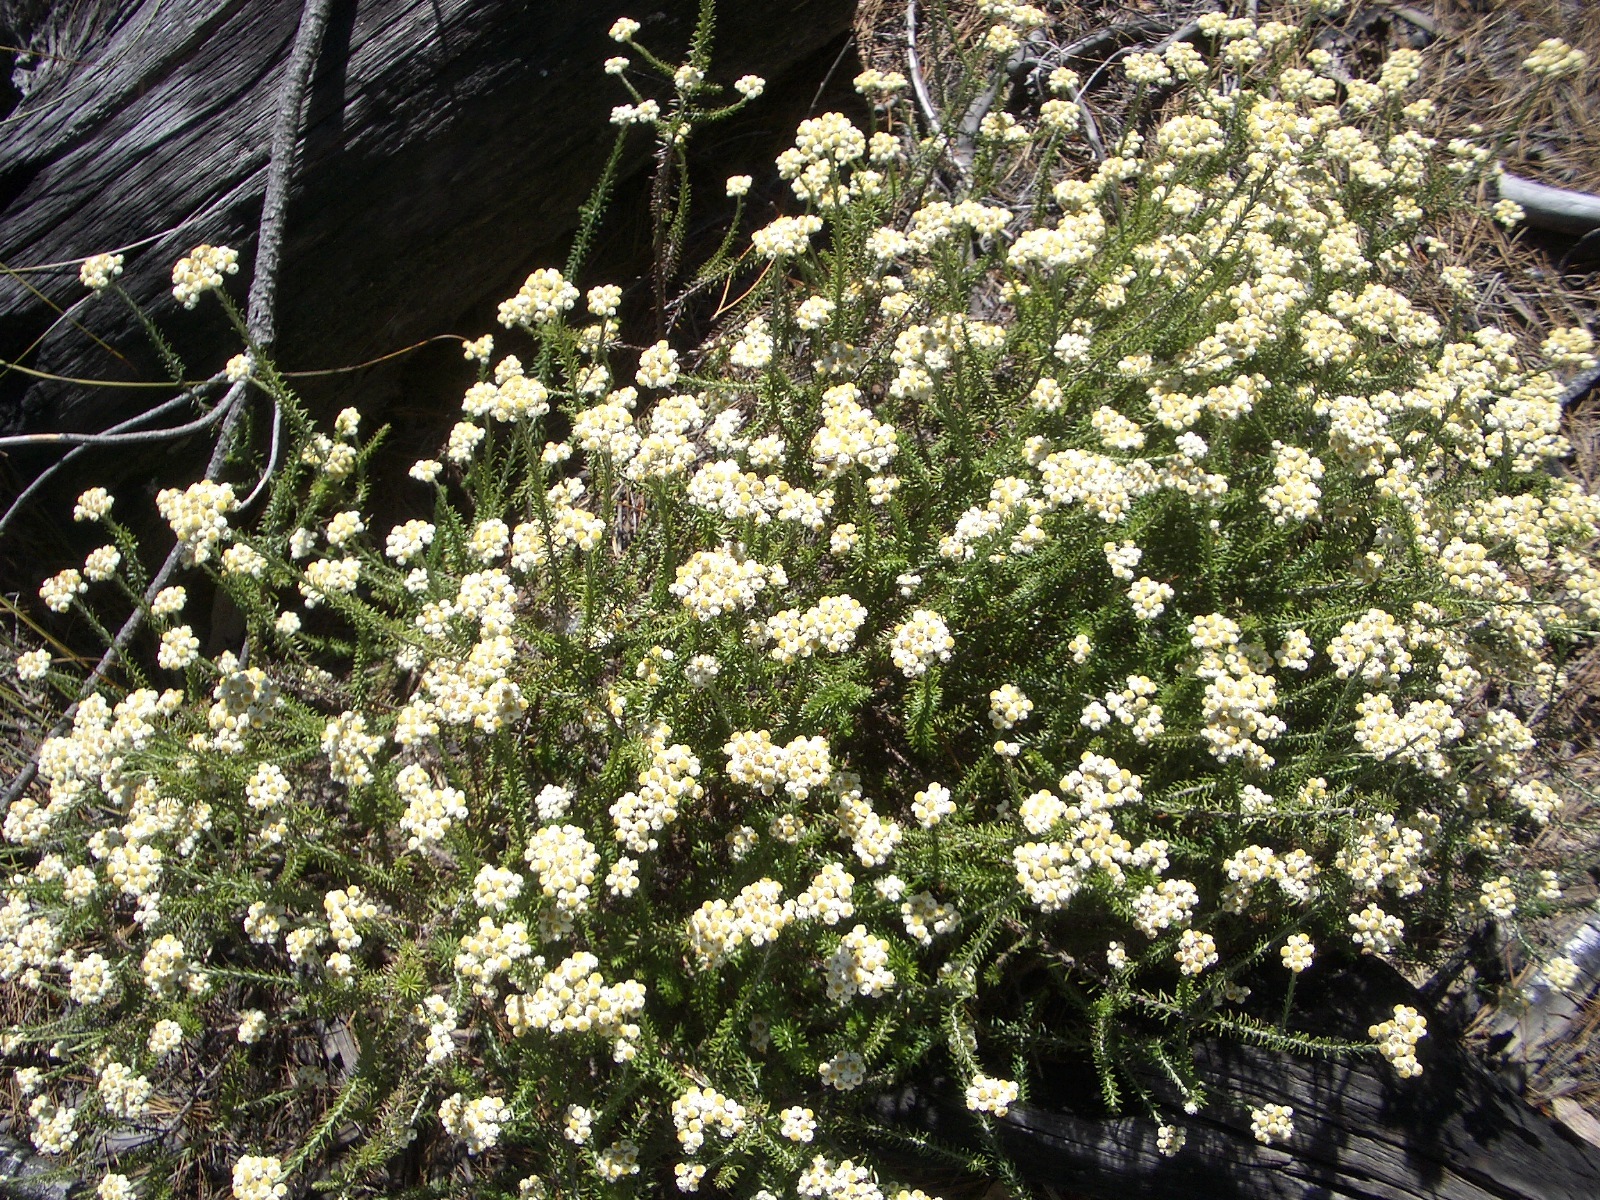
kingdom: Plantae
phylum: Tracheophyta
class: Magnoliopsida
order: Asterales
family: Asteraceae
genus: Helichrysum
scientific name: Helichrysum teretifolium
